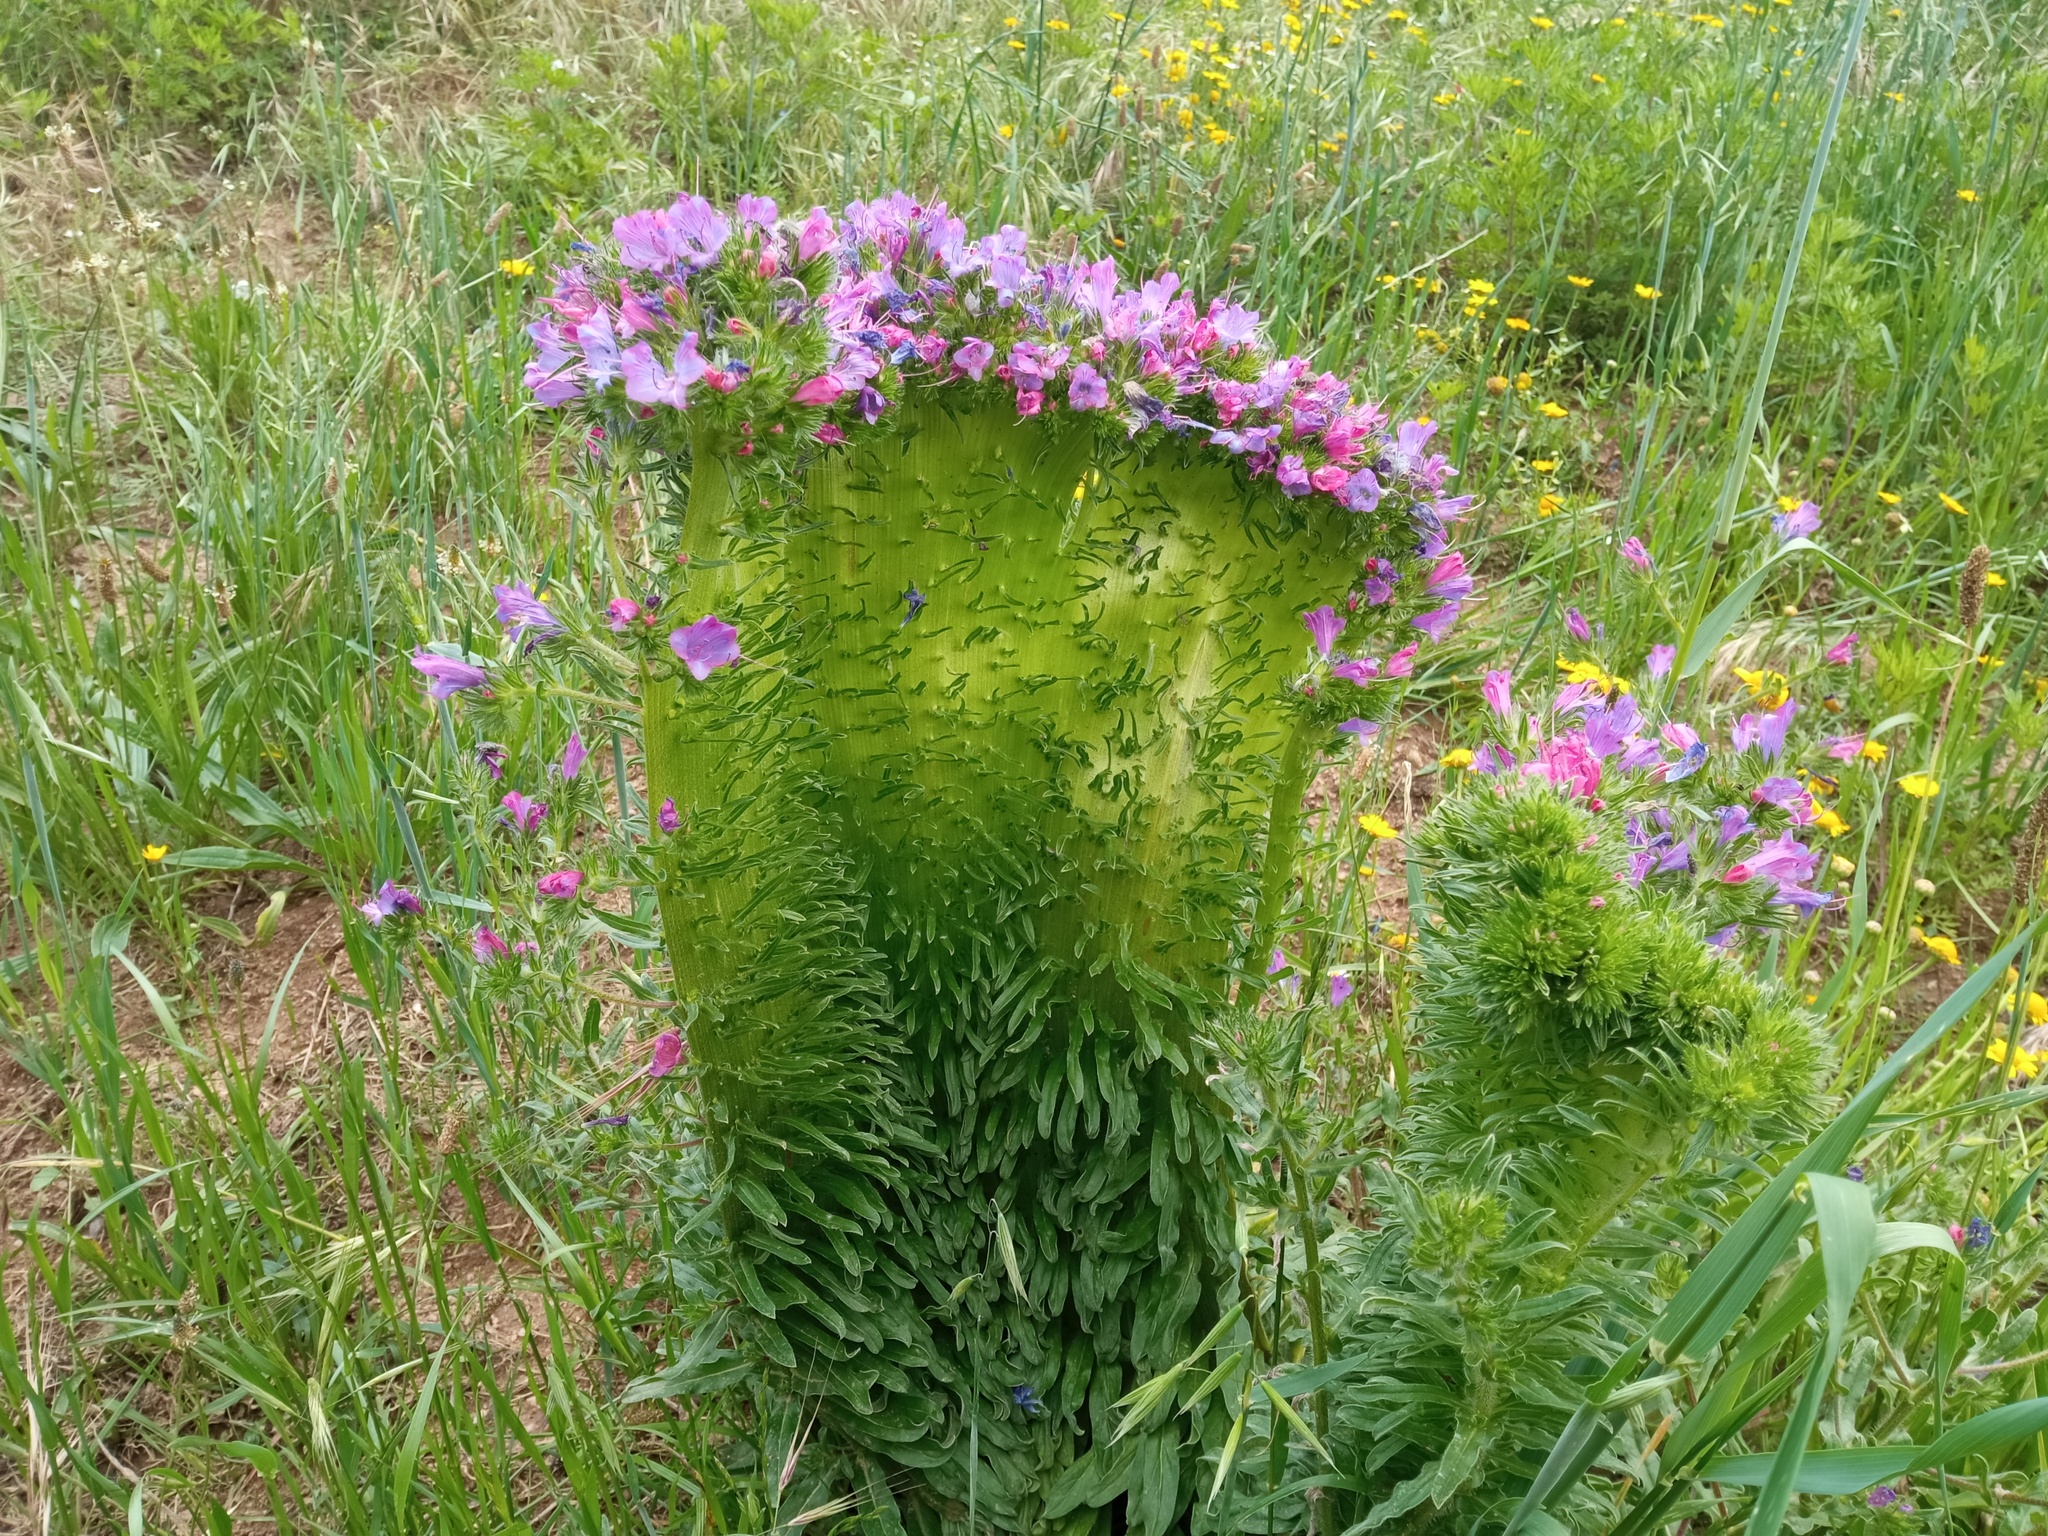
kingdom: Plantae
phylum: Tracheophyta
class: Magnoliopsida
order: Boraginales
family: Boraginaceae
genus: Echium
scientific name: Echium plantagineum
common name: Purple viper's-bugloss
